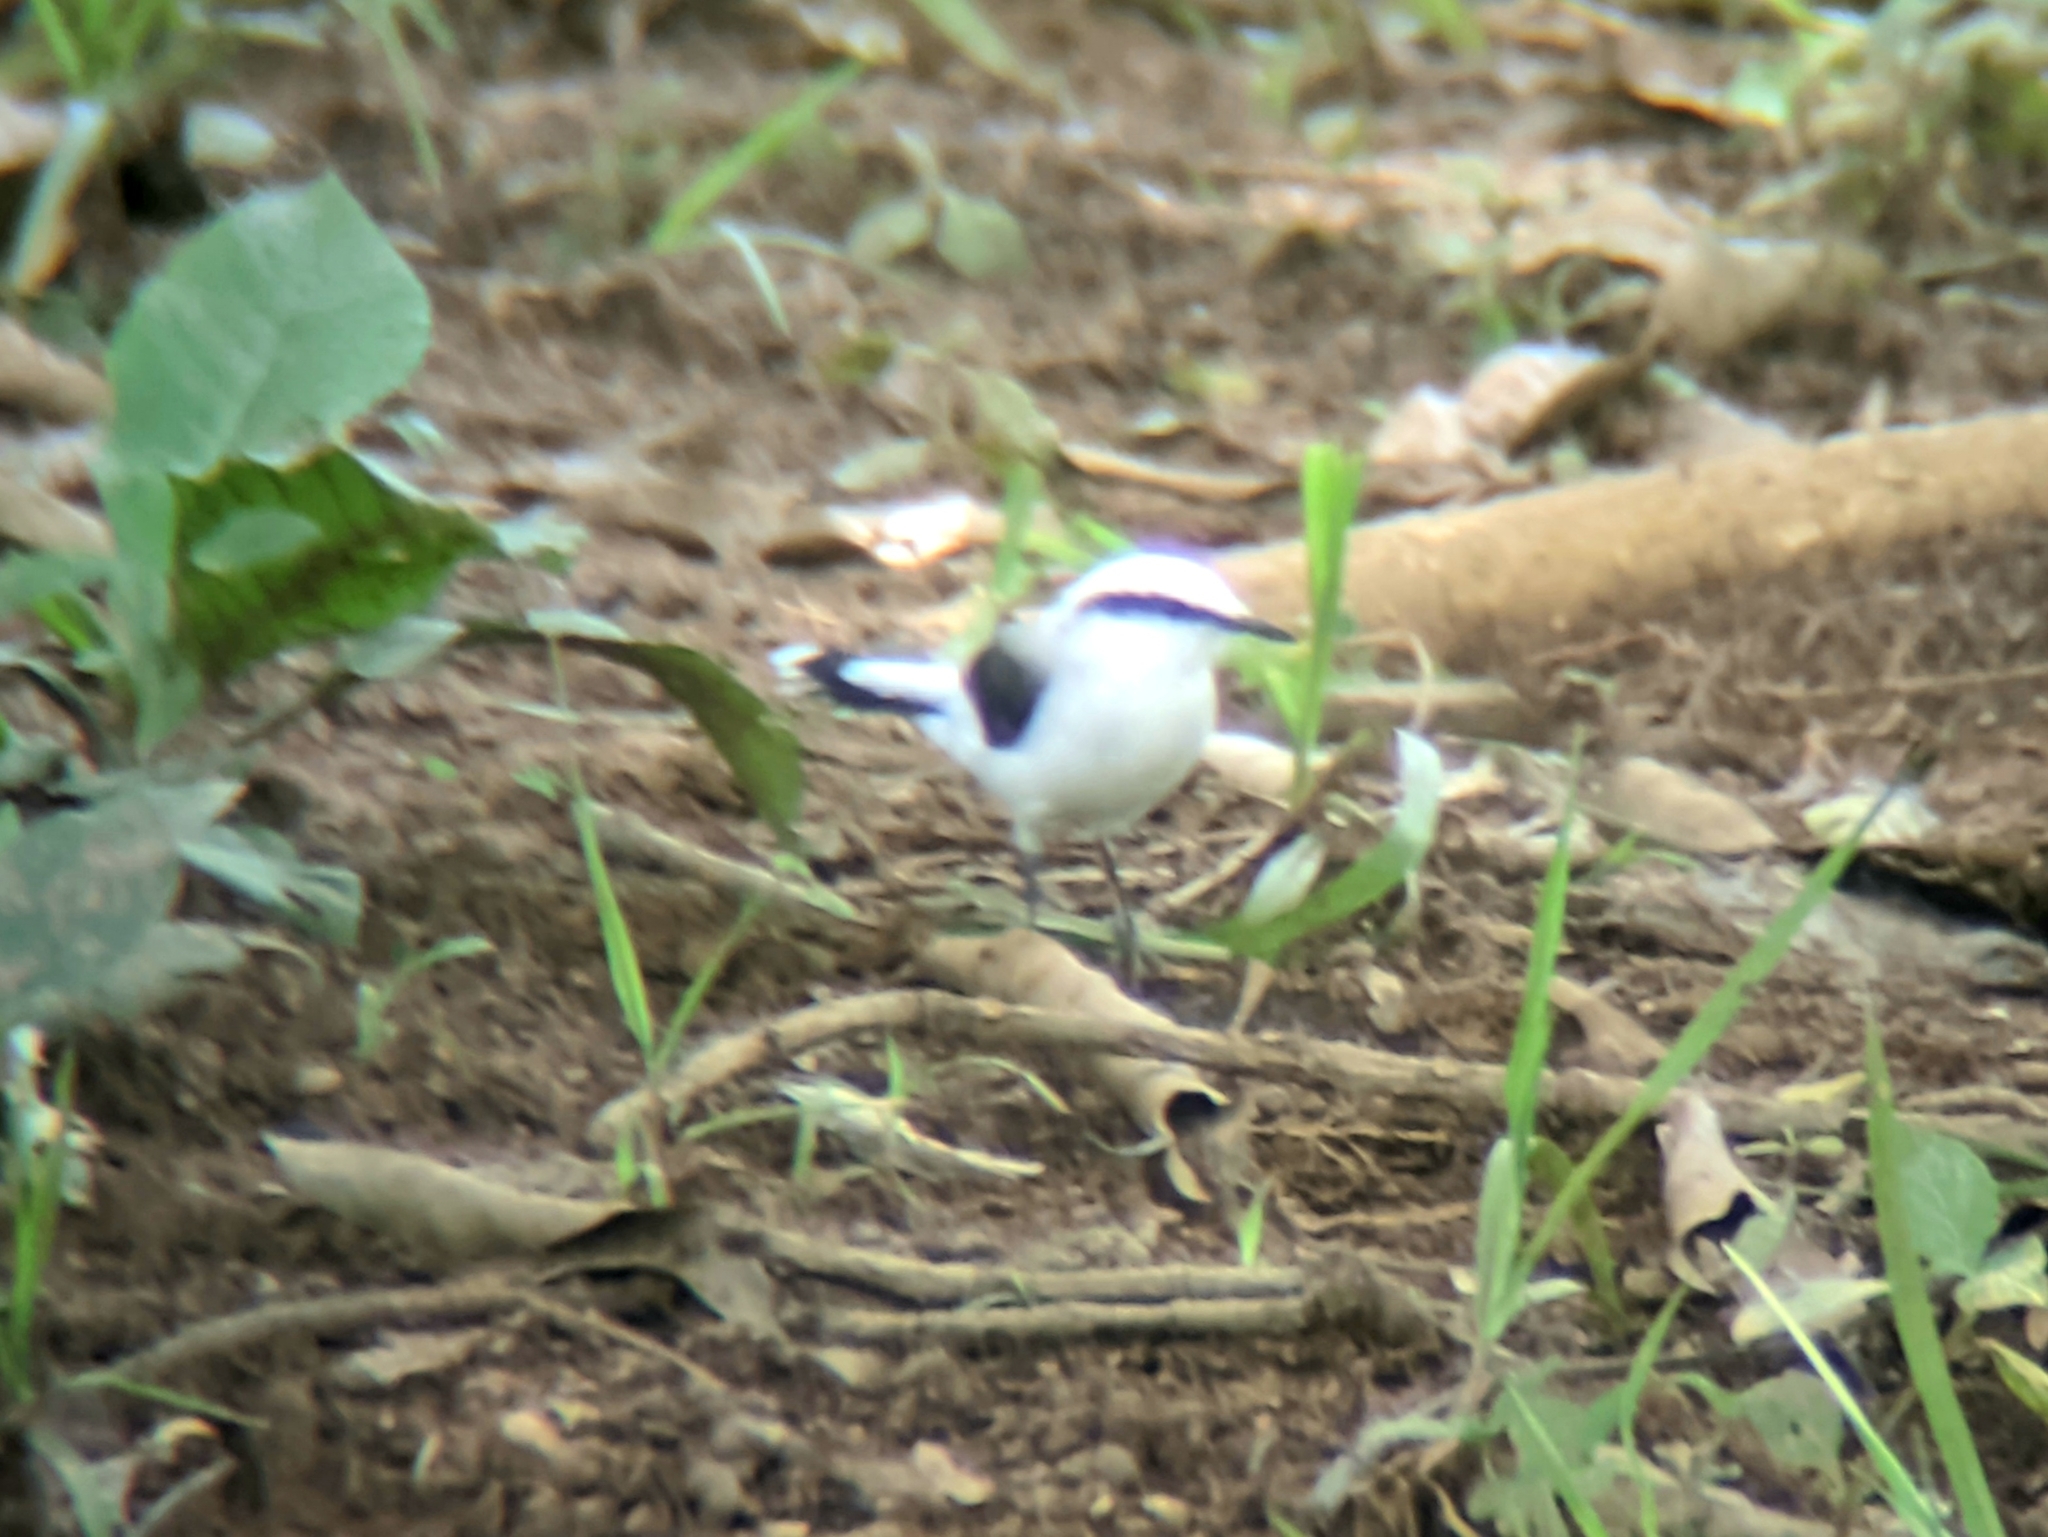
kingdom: Animalia
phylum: Chordata
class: Aves
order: Passeriformes
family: Tyrannidae
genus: Fluvicola
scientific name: Fluvicola nengeta
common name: Masked water tyrant
